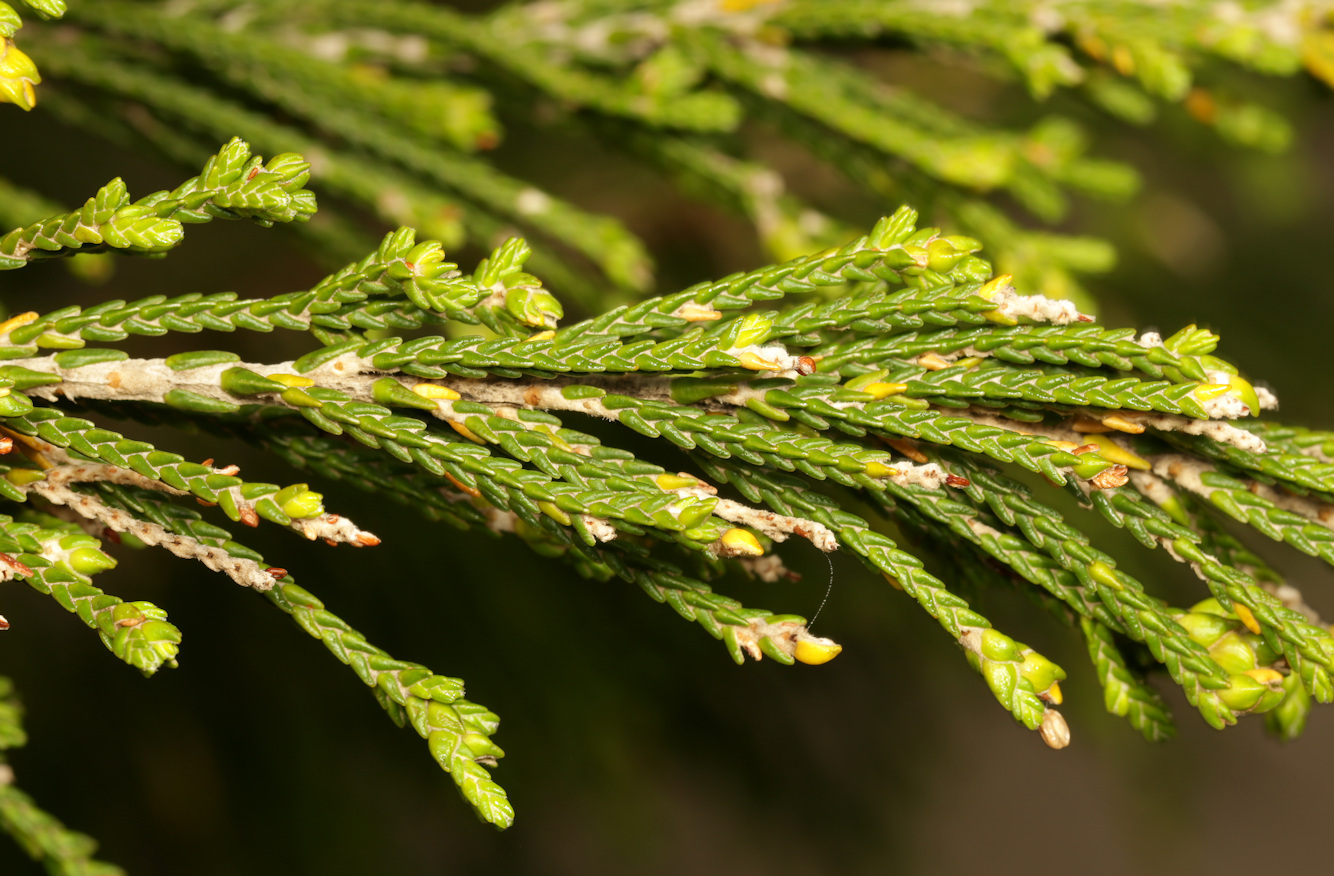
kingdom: Plantae
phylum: Tracheophyta
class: Magnoliopsida
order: Malvales
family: Thymelaeaceae
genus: Passerina
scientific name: Passerina rigida
